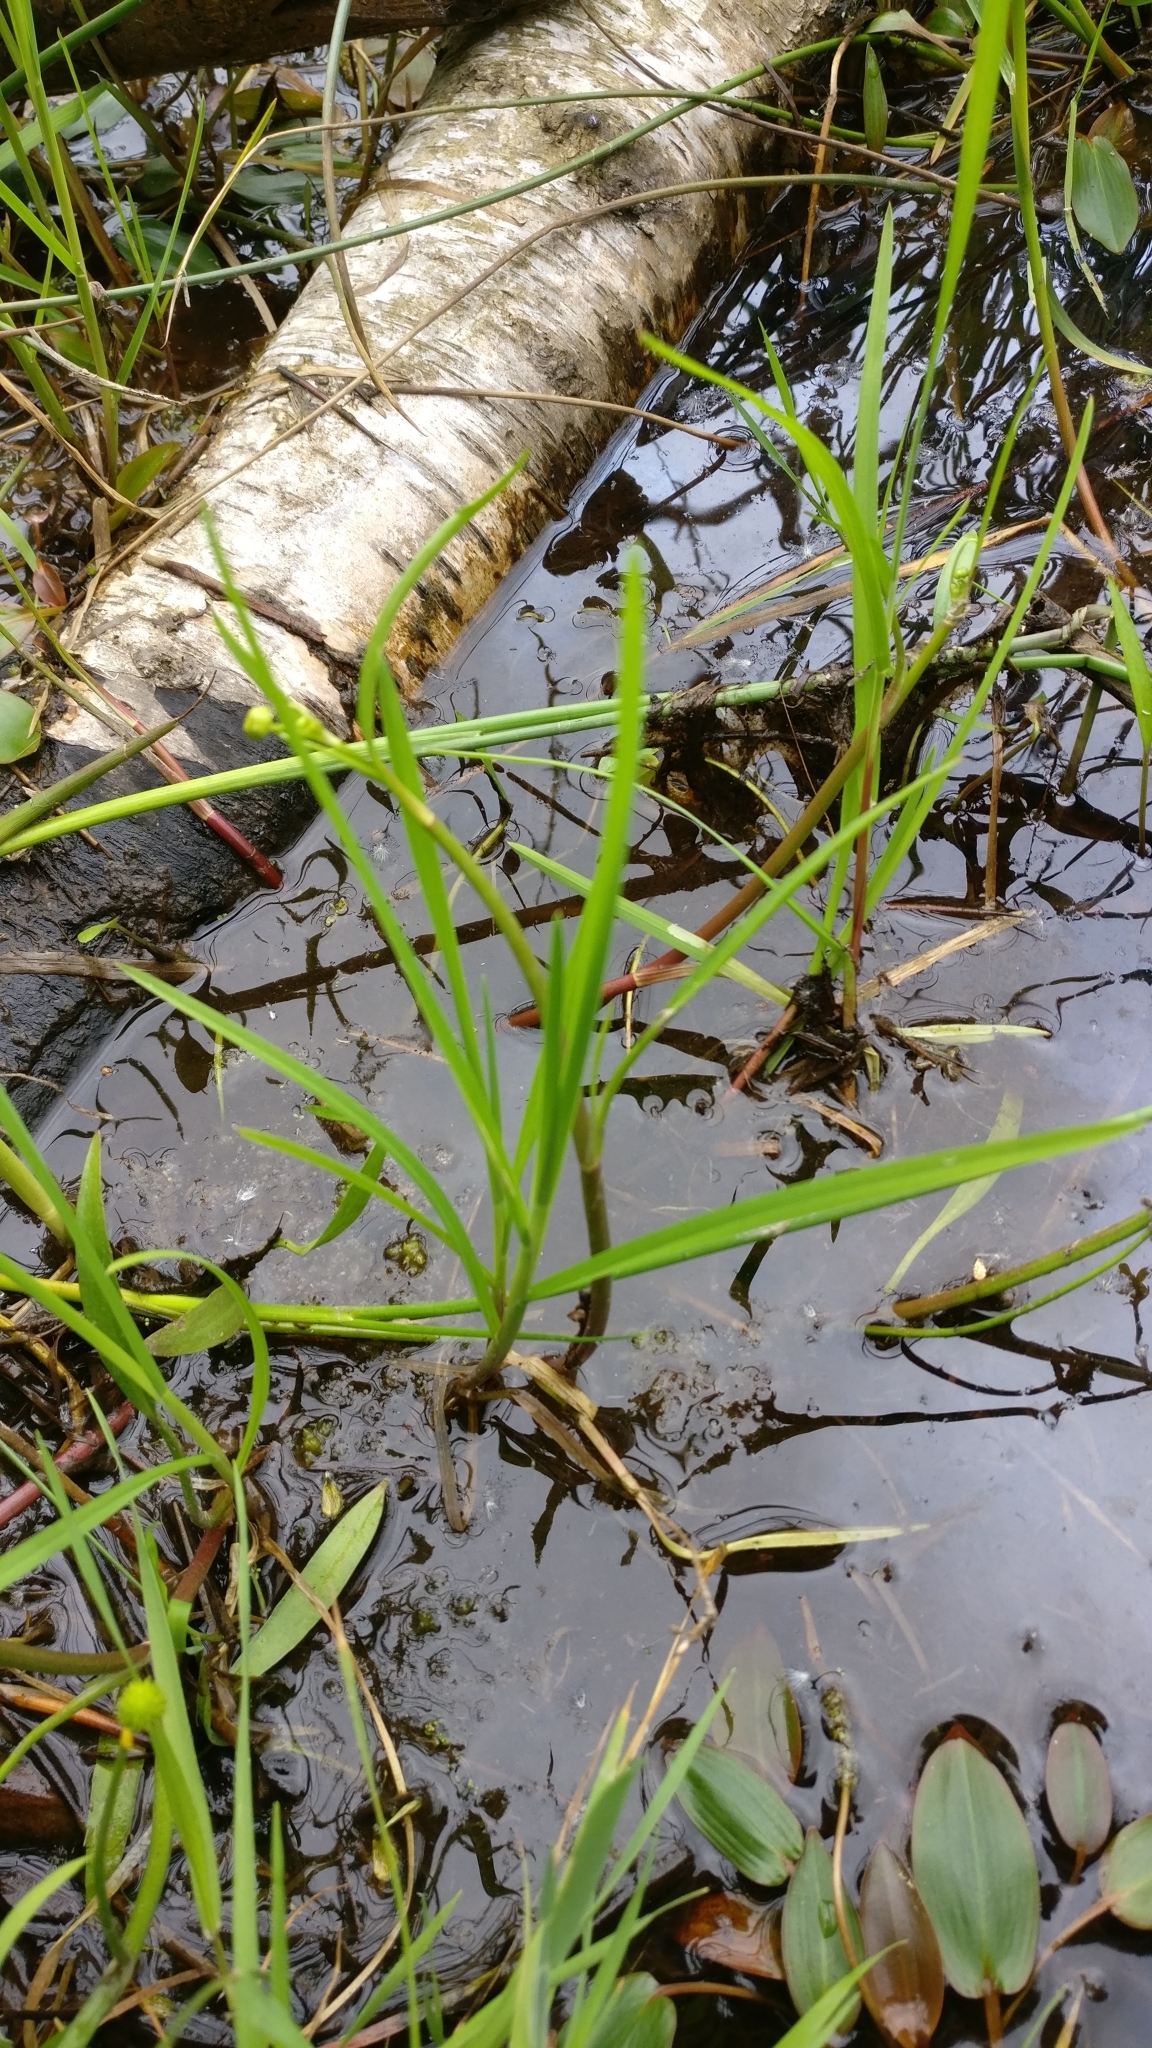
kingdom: Plantae
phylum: Tracheophyta
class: Magnoliopsida
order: Ranunculales
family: Ranunculaceae
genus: Ranunculus
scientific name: Ranunculus flammula
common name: Lesser spearwort
